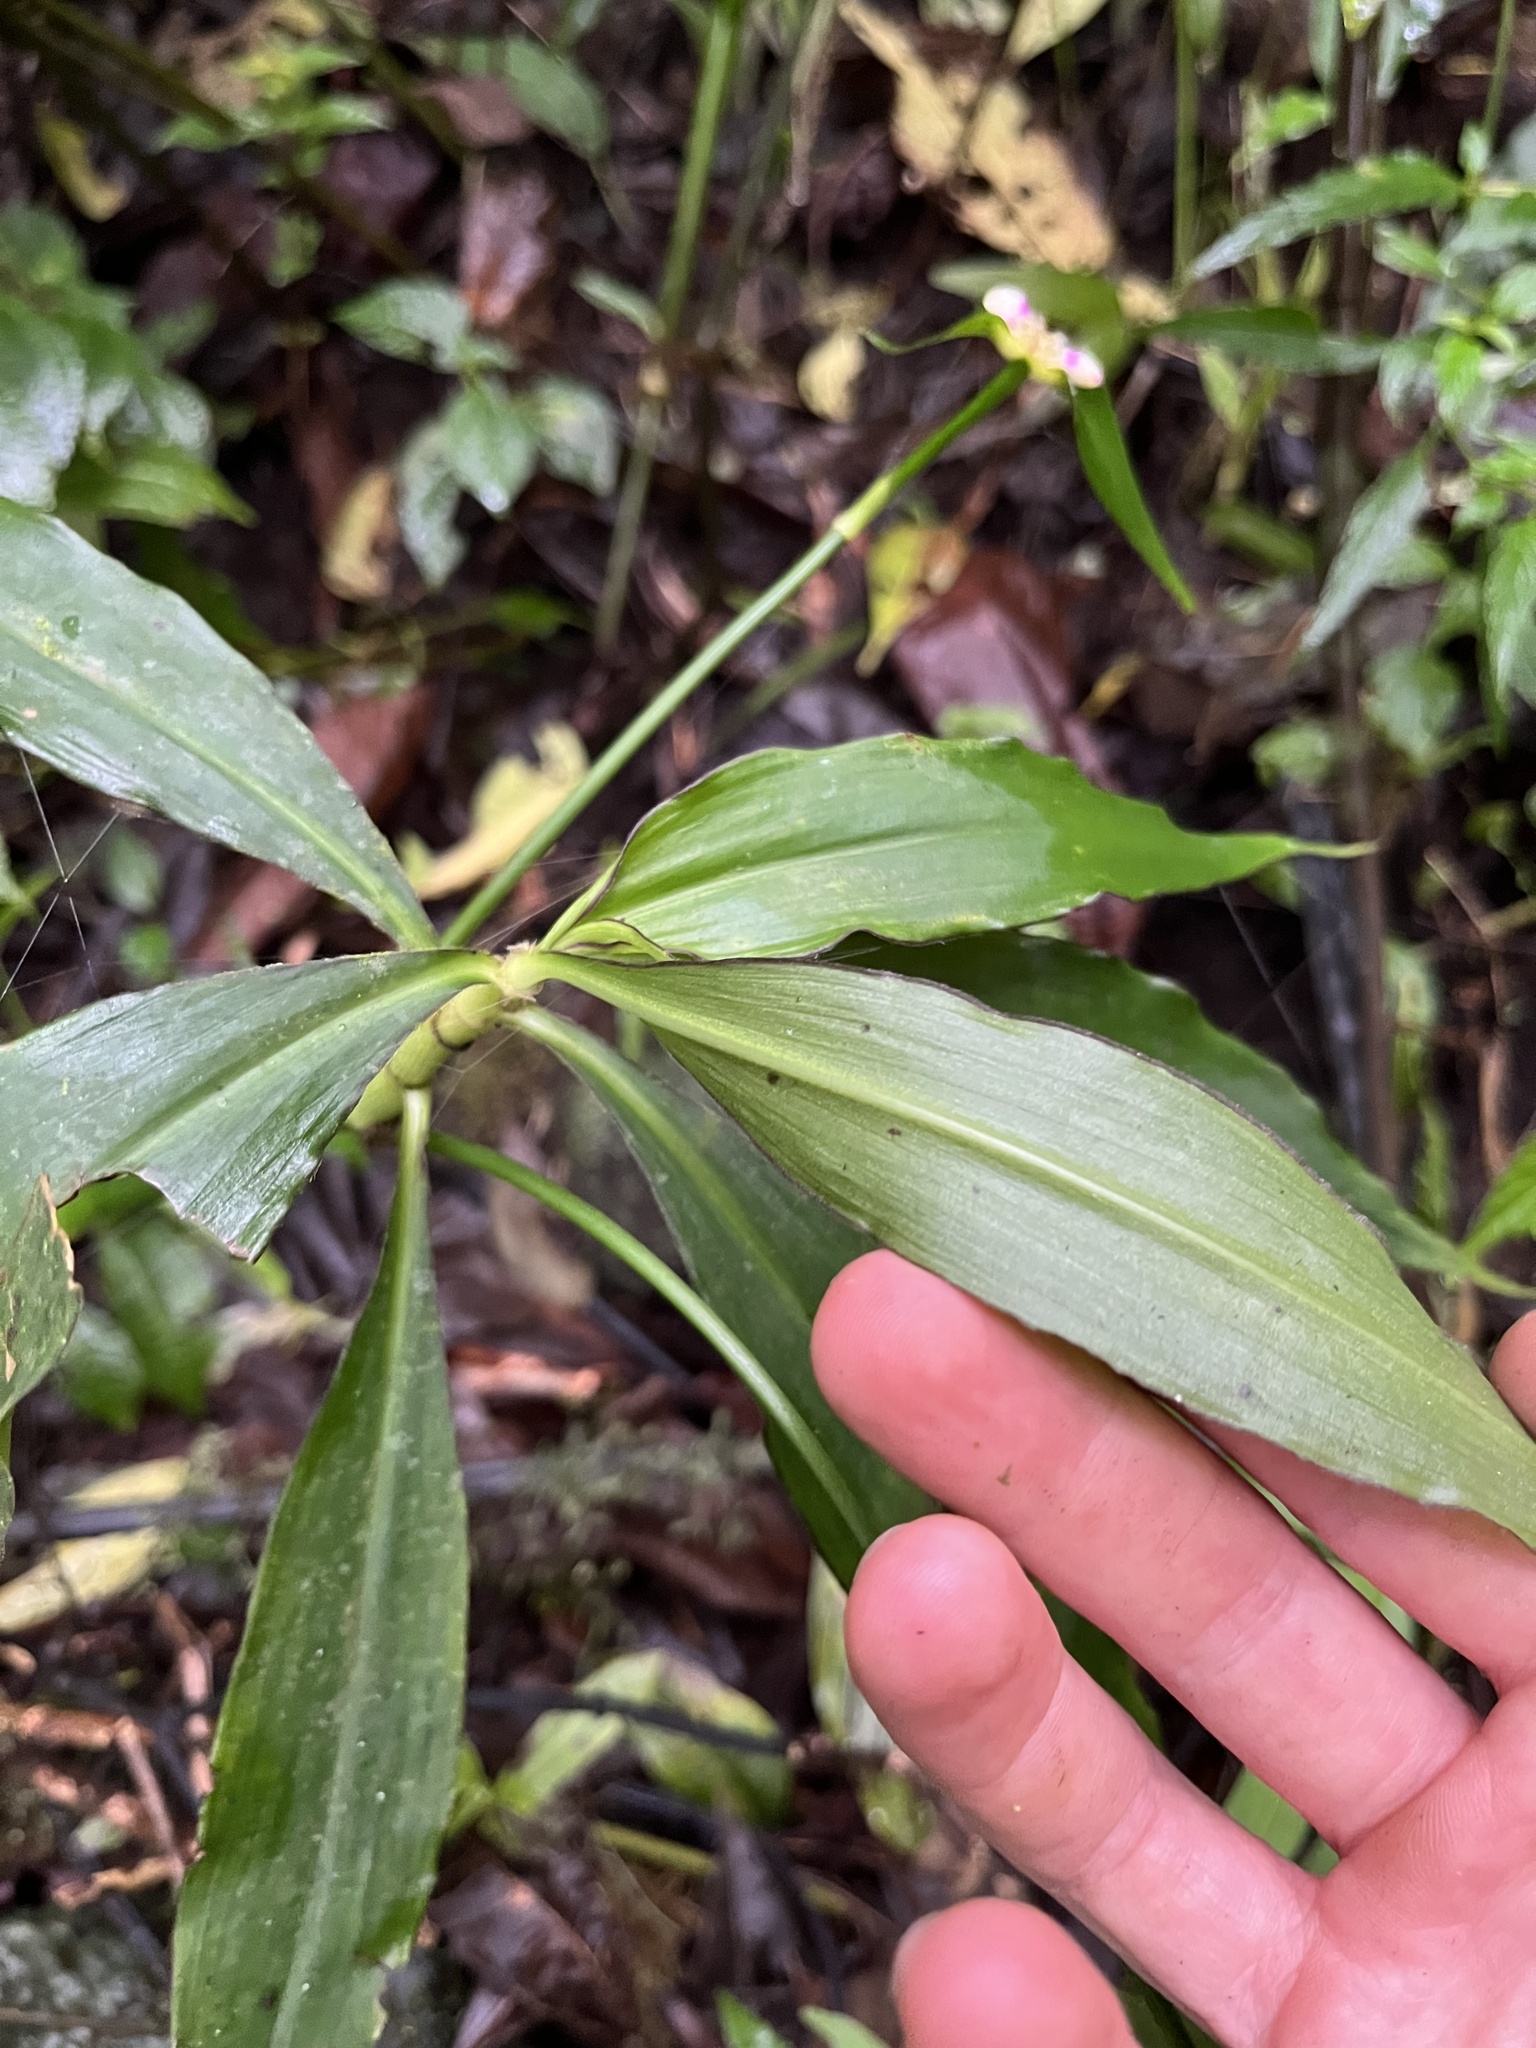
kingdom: Plantae
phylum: Tracheophyta
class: Liliopsida
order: Commelinales
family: Commelinaceae
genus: Tradescantia
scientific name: Tradescantia zanonia
